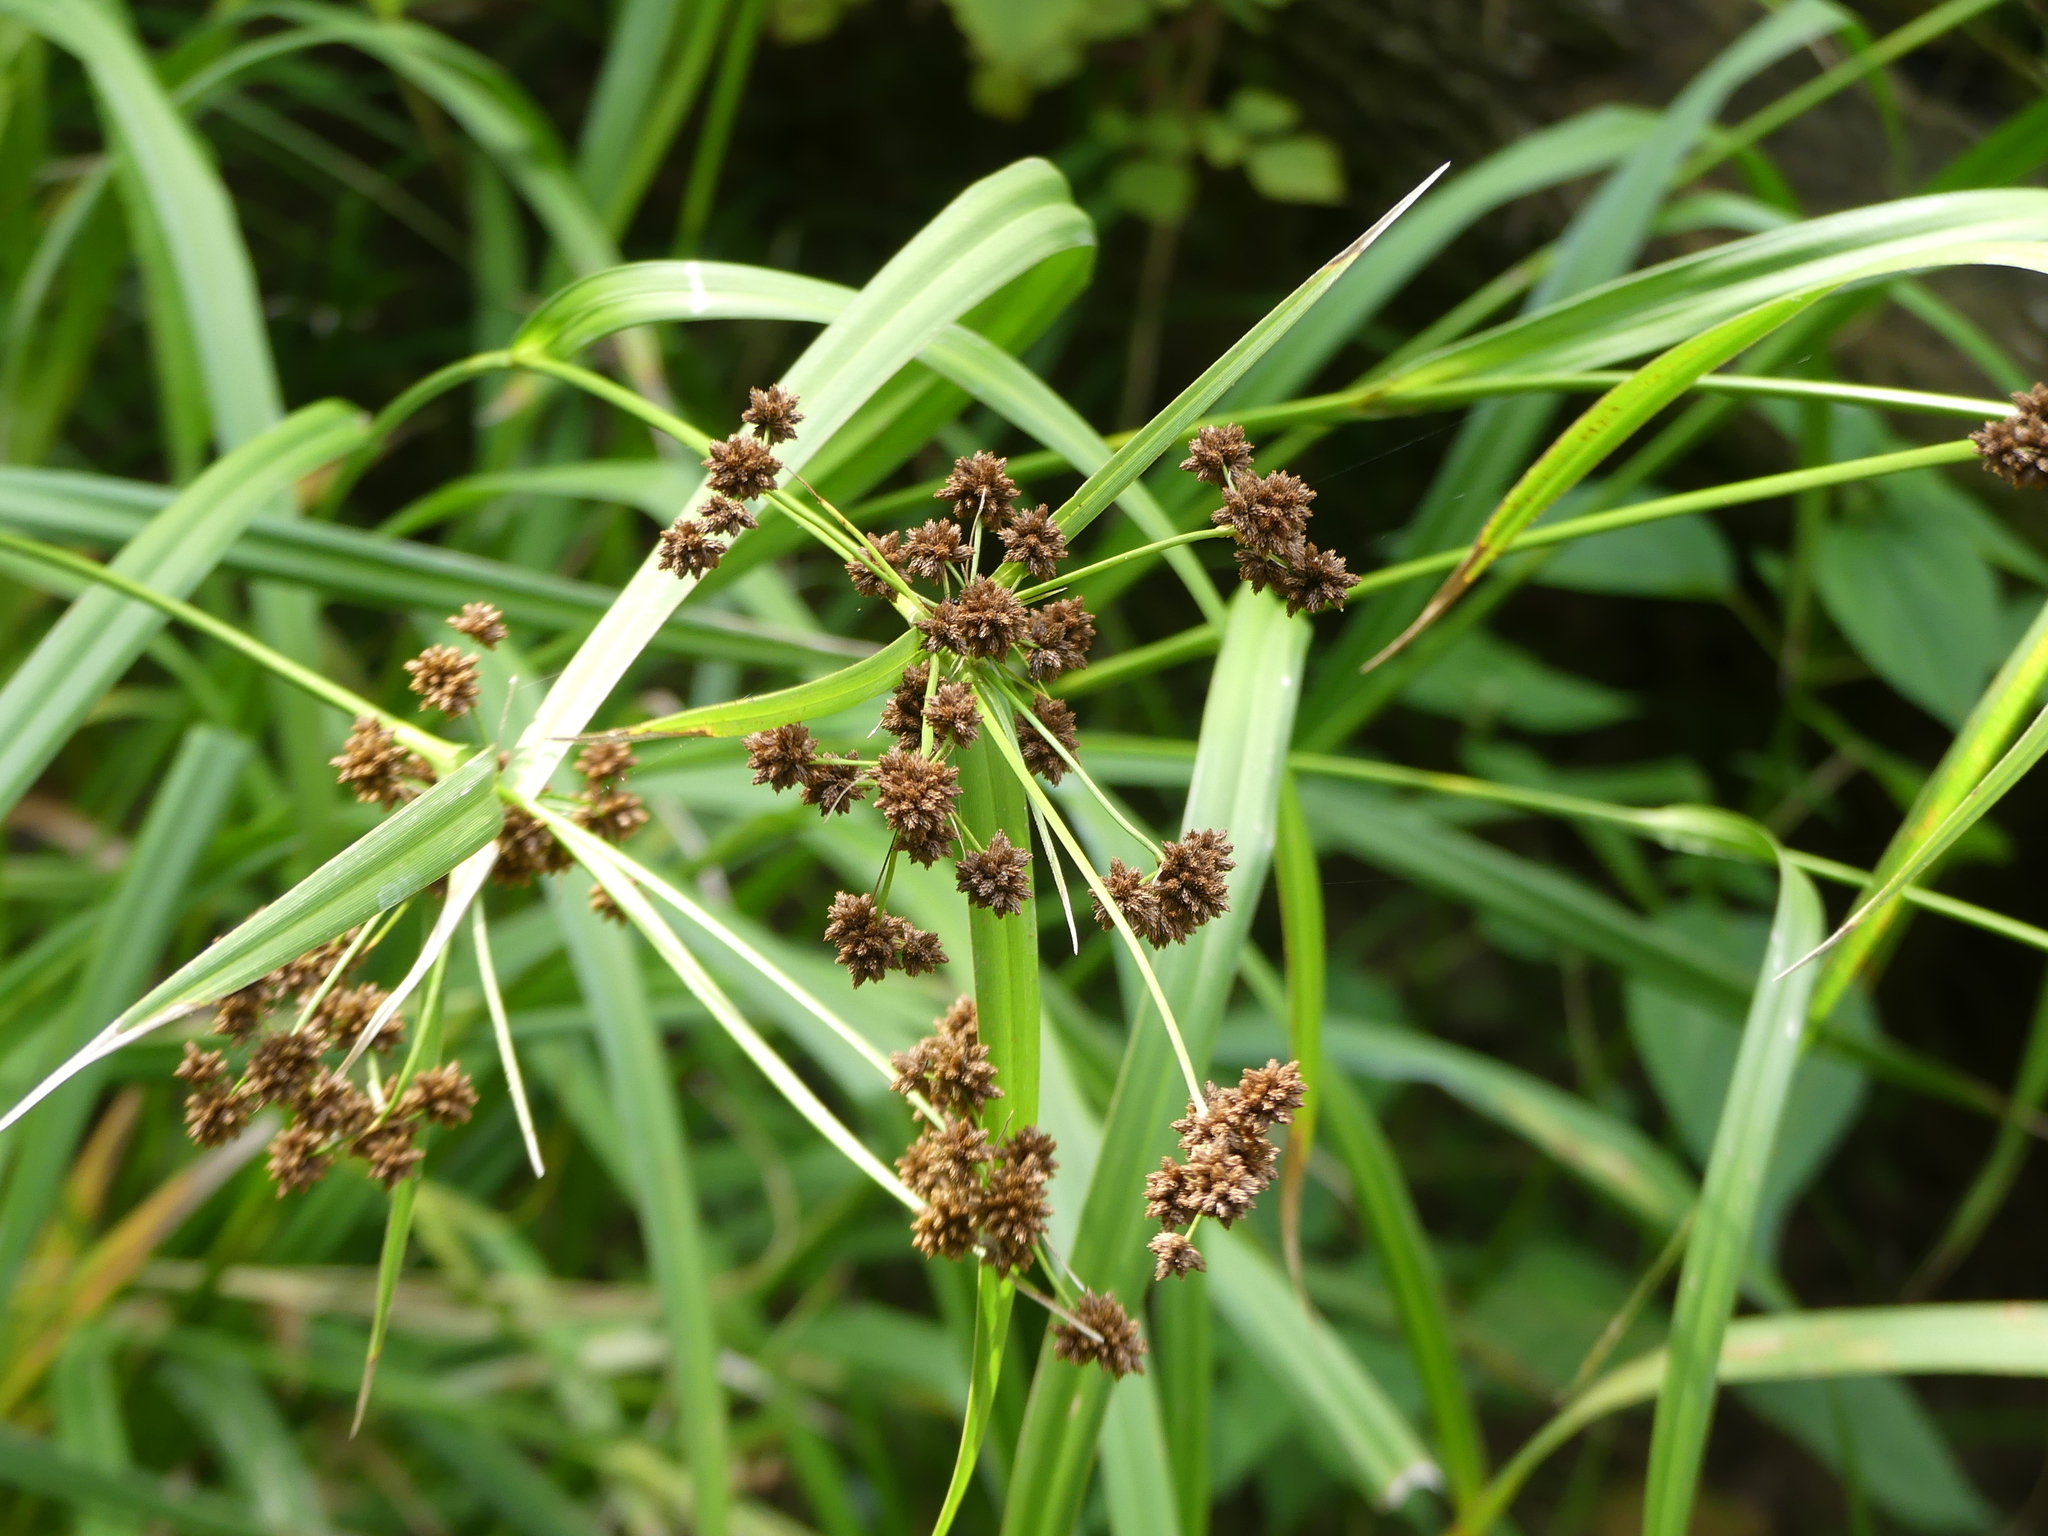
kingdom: Plantae
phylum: Tracheophyta
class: Liliopsida
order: Poales
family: Cyperaceae
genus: Scirpus
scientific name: Scirpus atrovirens
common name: Black bulrush
